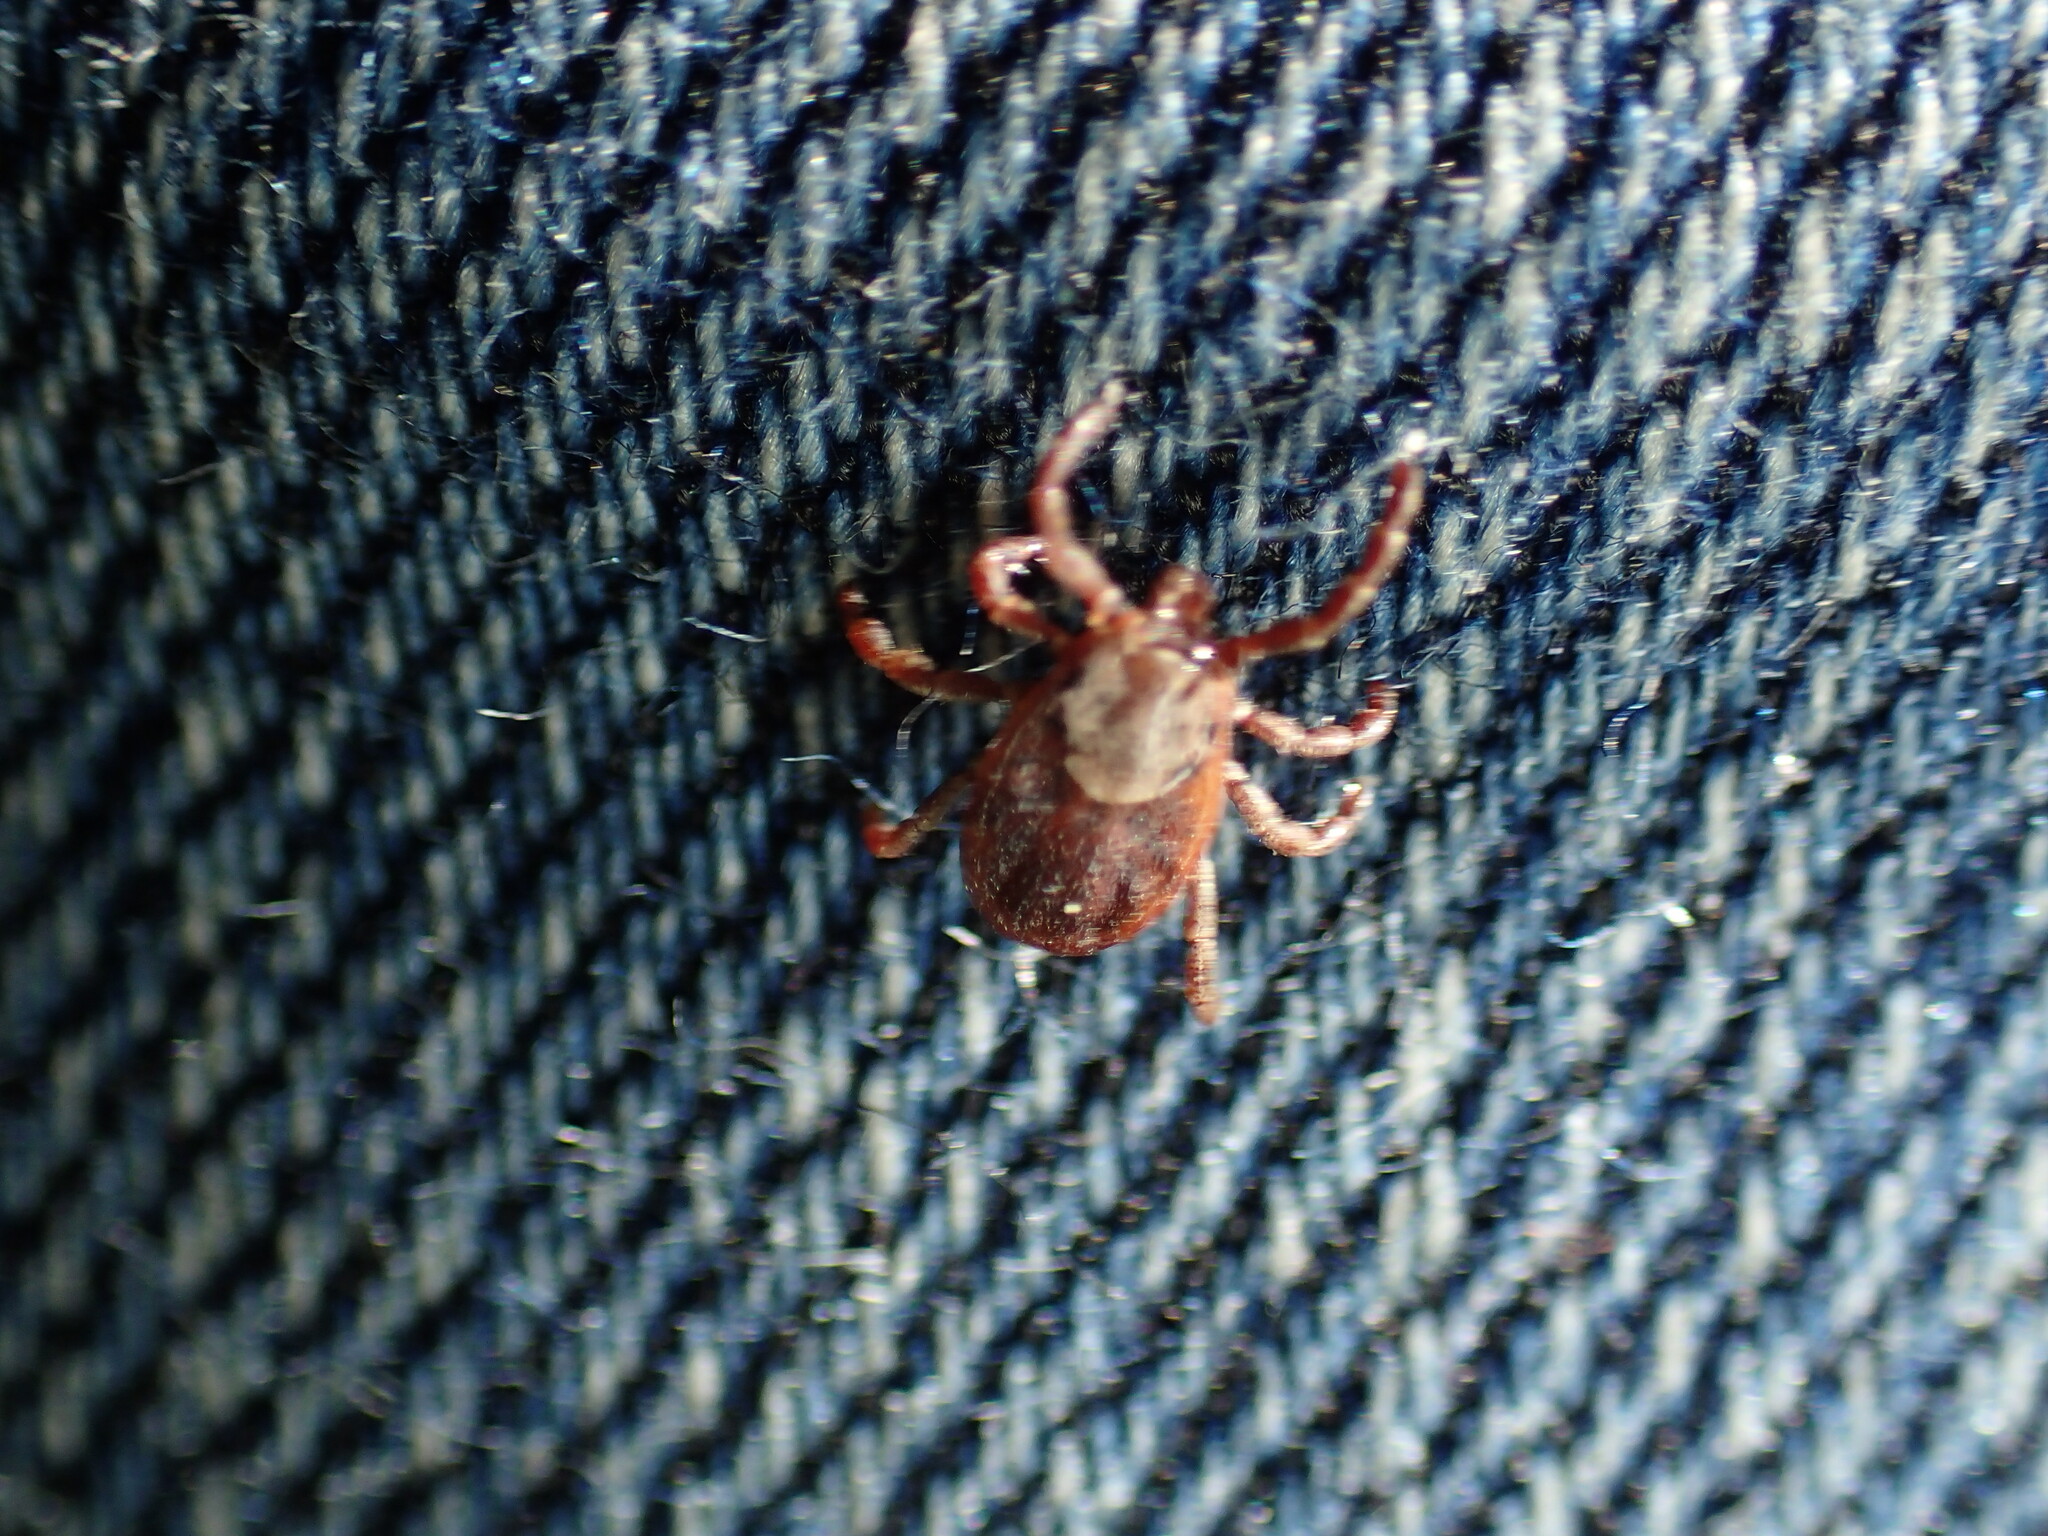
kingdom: Animalia
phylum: Arthropoda
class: Arachnida
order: Ixodida
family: Ixodidae
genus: Dermacentor
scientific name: Dermacentor occidentalis
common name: Net tick
